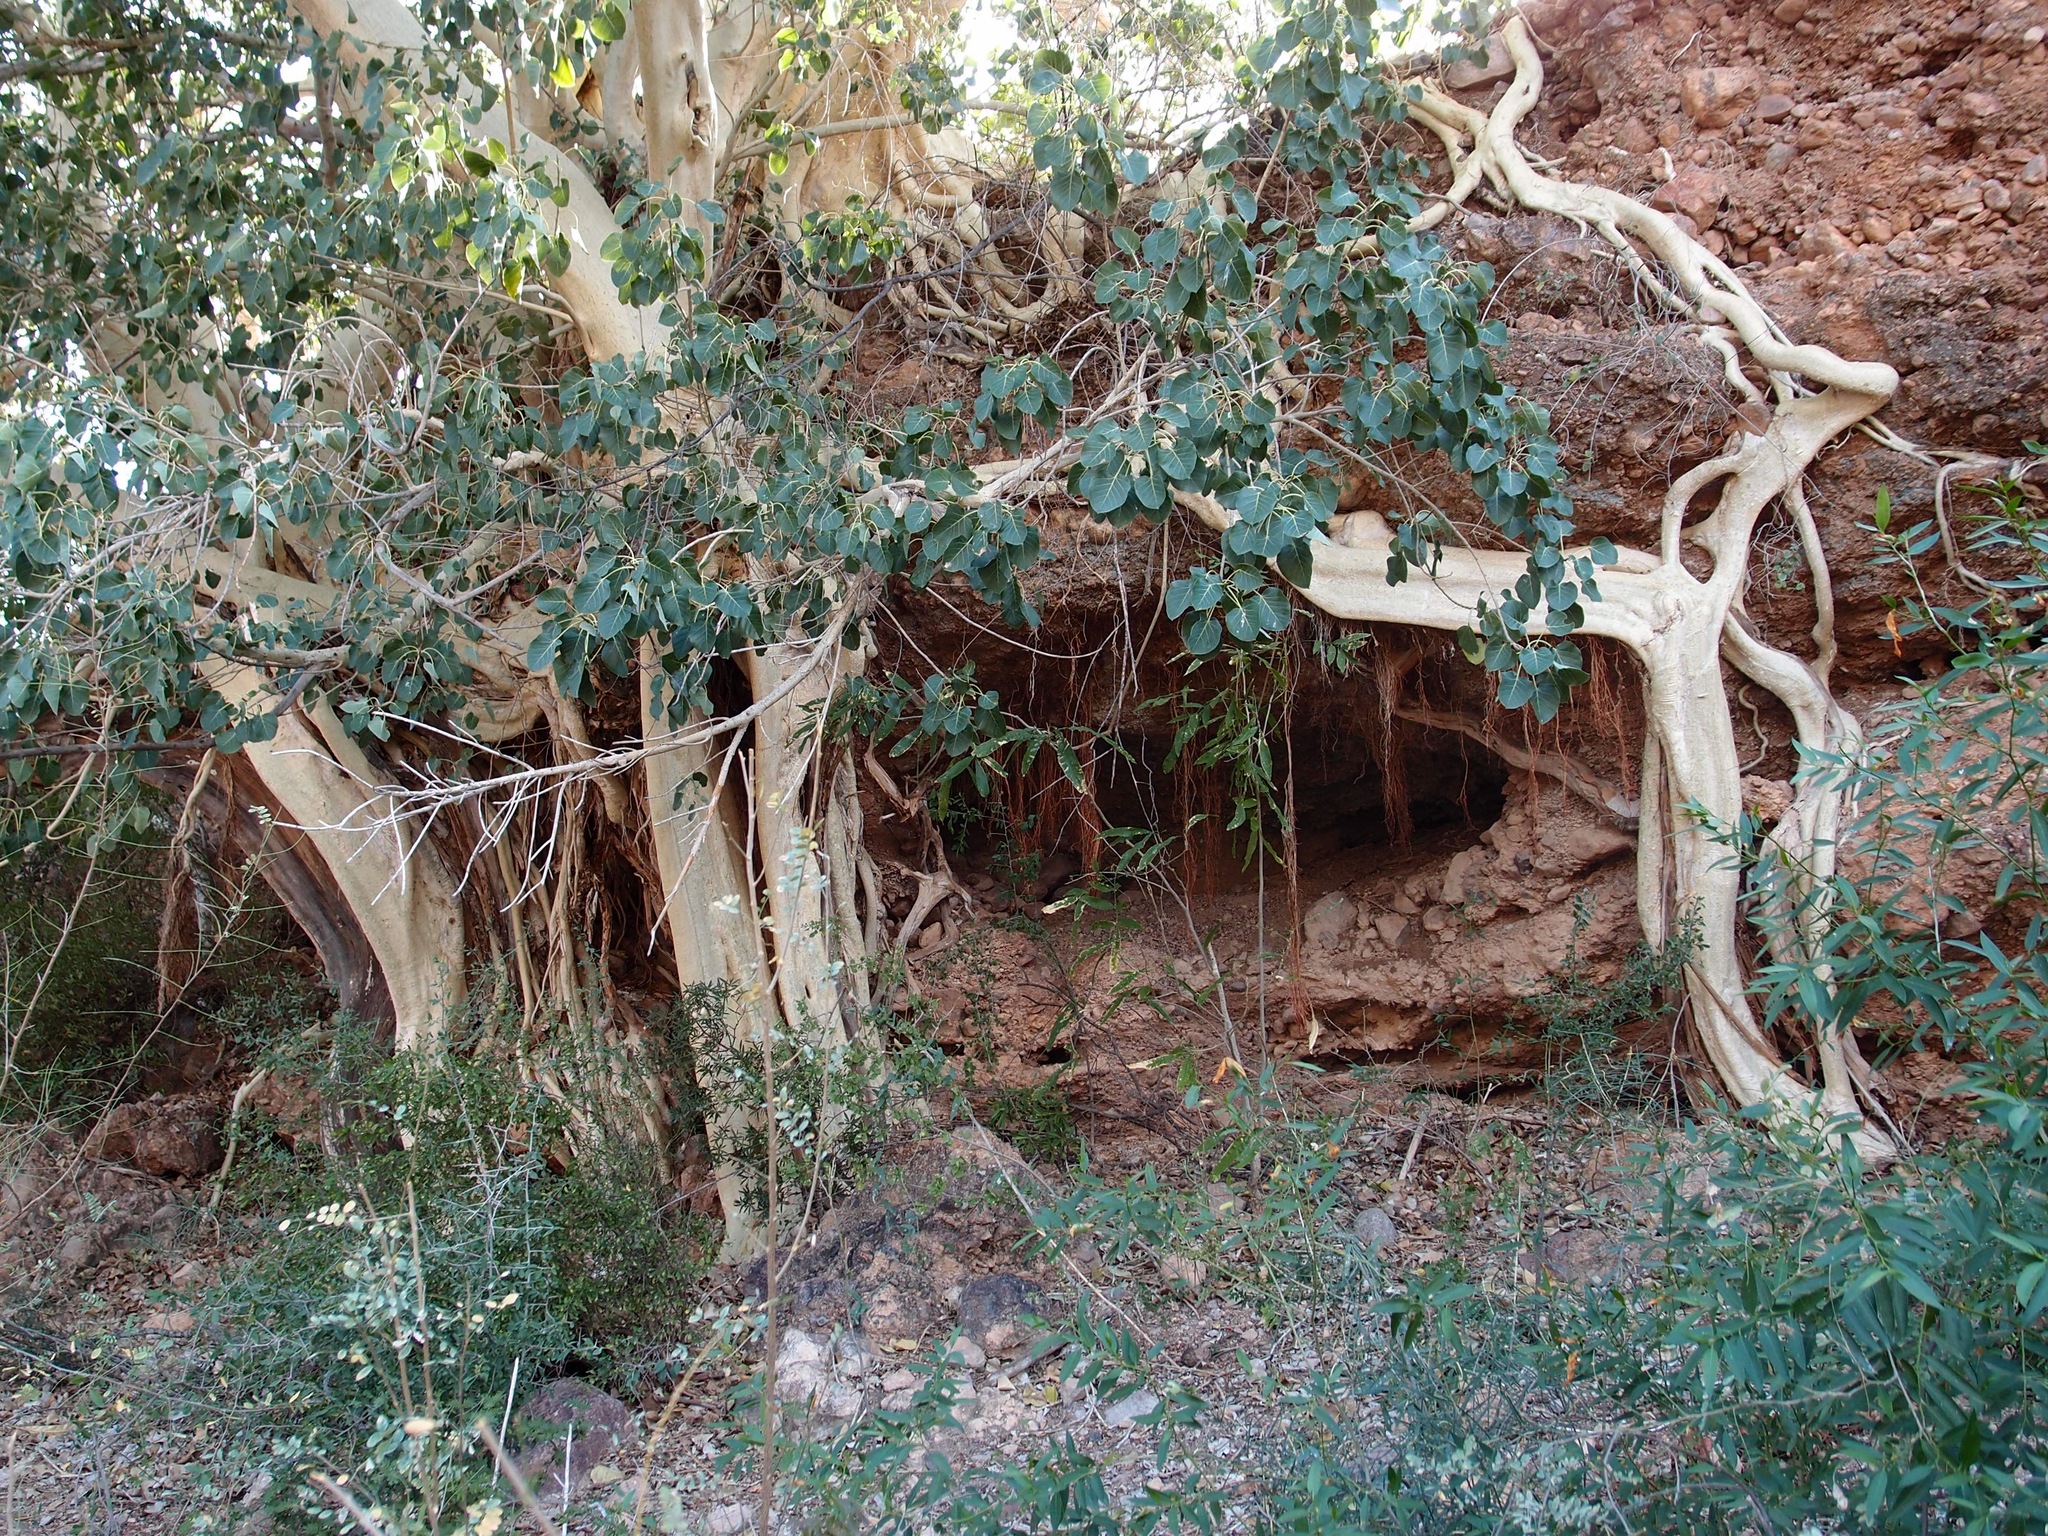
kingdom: Plantae
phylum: Tracheophyta
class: Magnoliopsida
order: Rosales
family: Moraceae
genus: Ficus
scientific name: Ficus petiolaris
